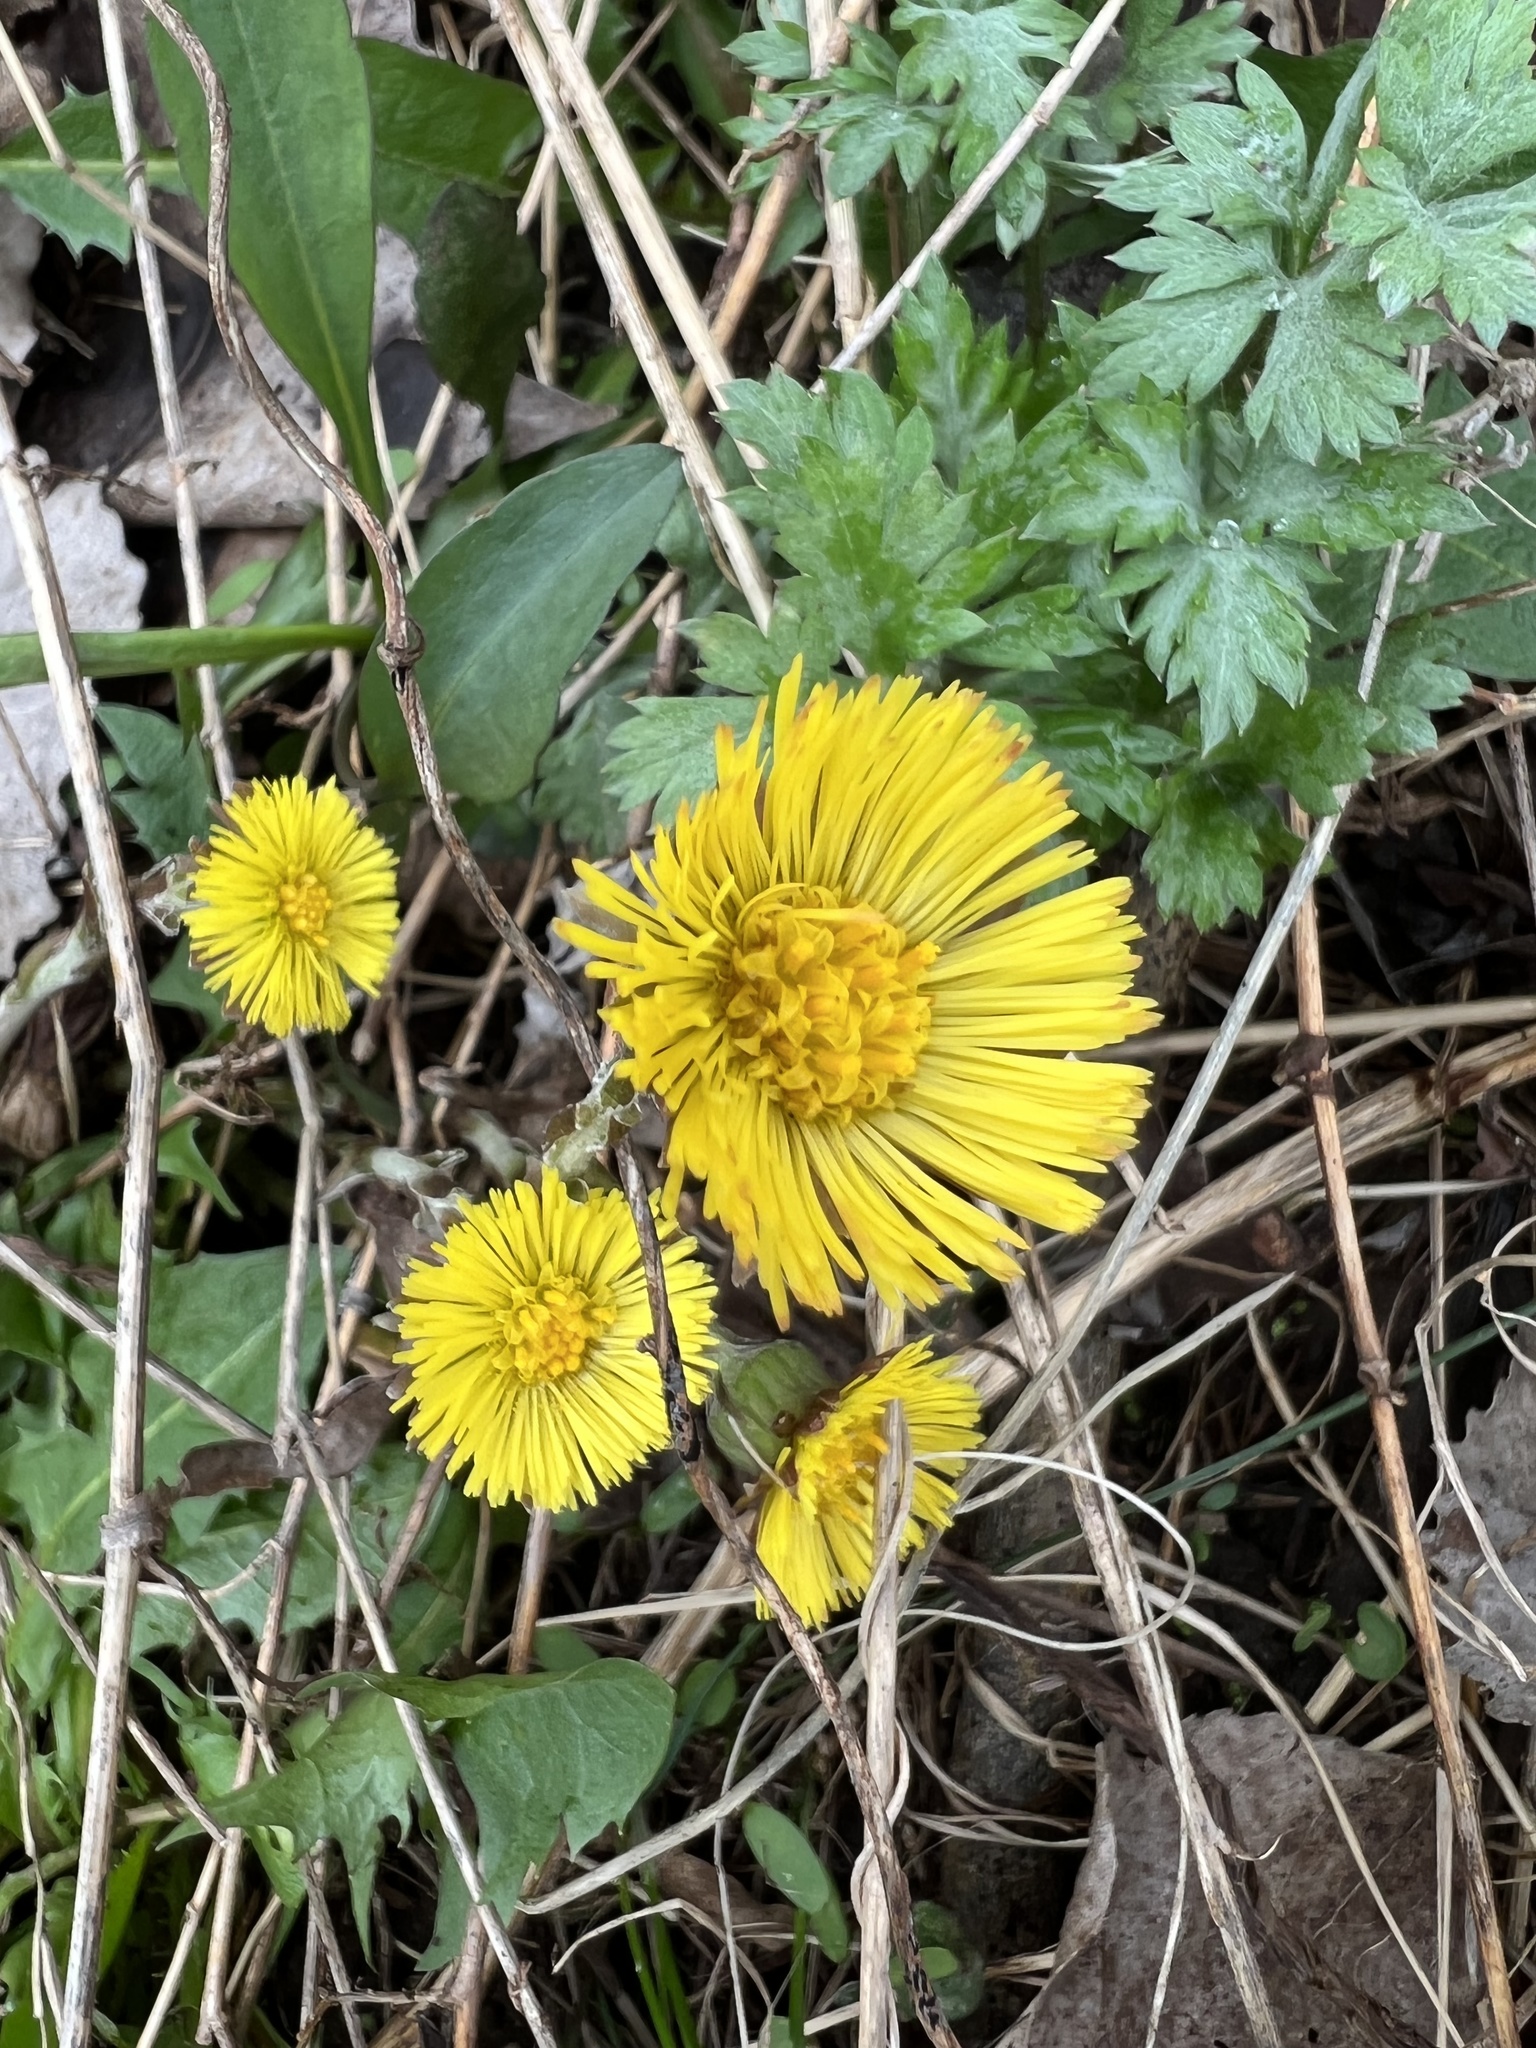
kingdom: Plantae
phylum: Tracheophyta
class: Magnoliopsida
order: Asterales
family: Asteraceae
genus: Tussilago
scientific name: Tussilago farfara
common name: Coltsfoot
